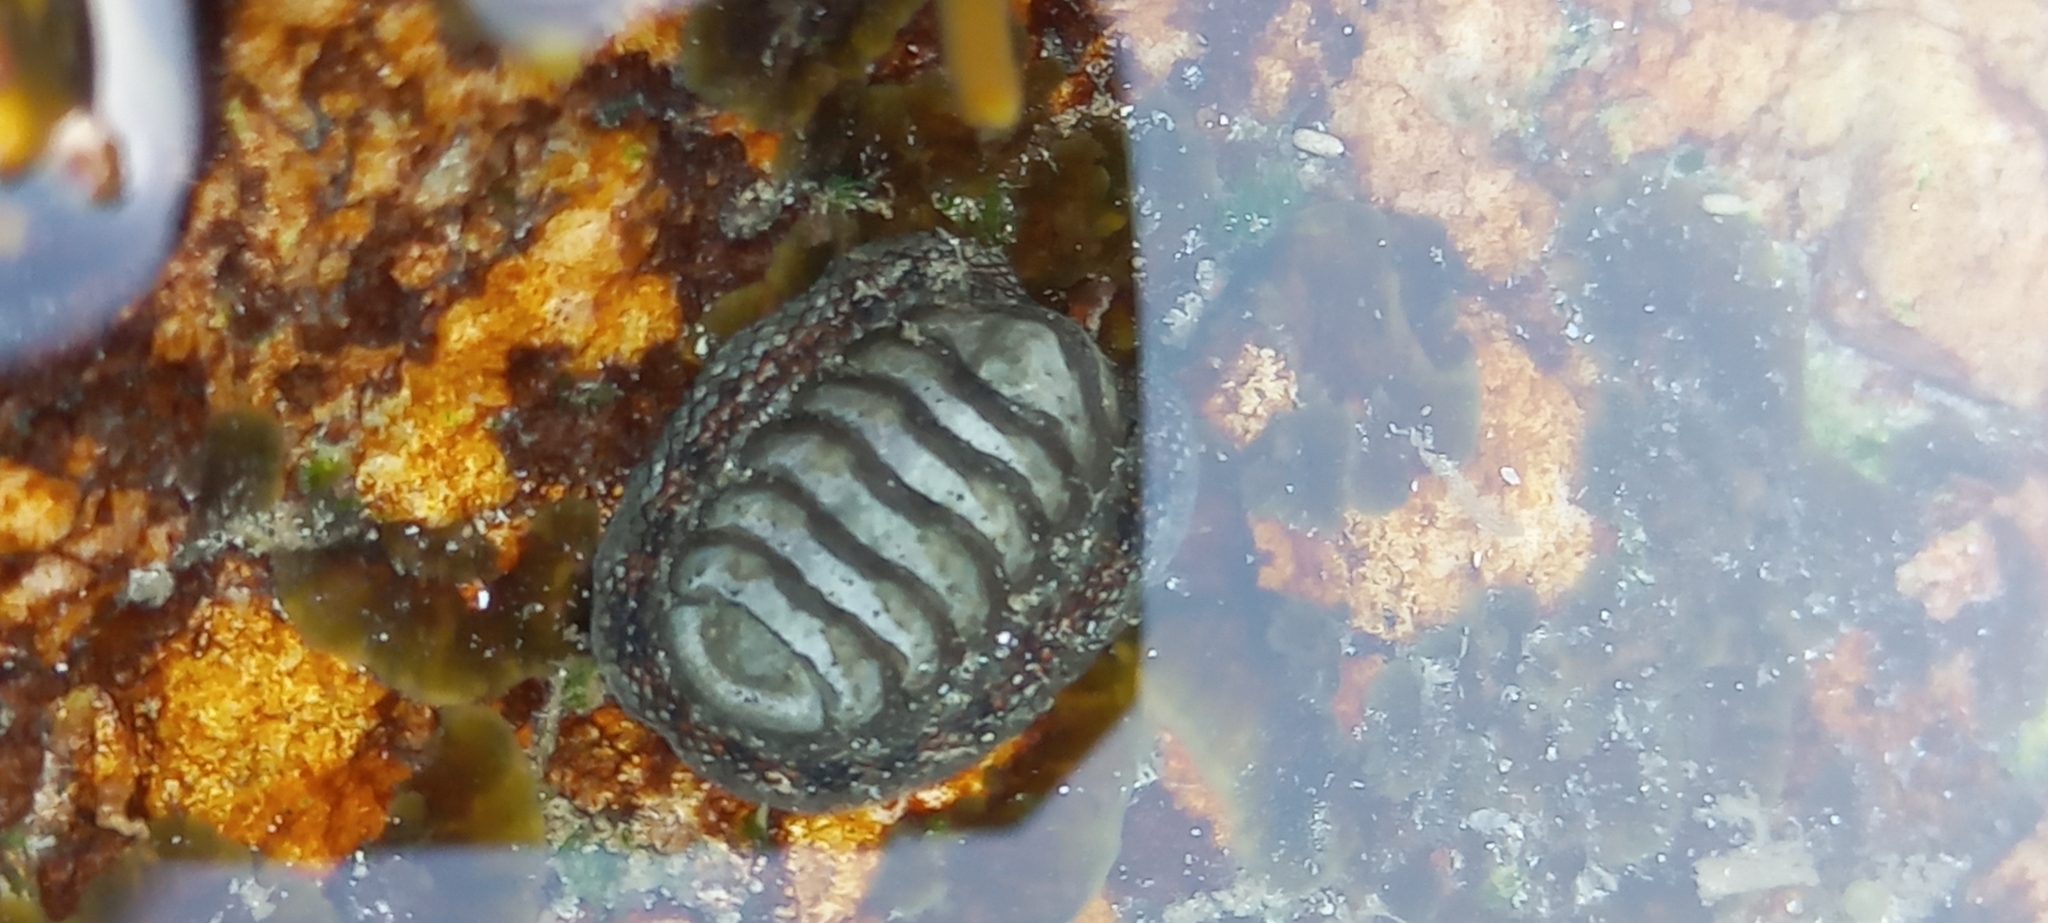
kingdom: Animalia
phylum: Mollusca
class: Polyplacophora
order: Chitonida
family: Chitonidae
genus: Radsia
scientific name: Radsia nigrovirescens
